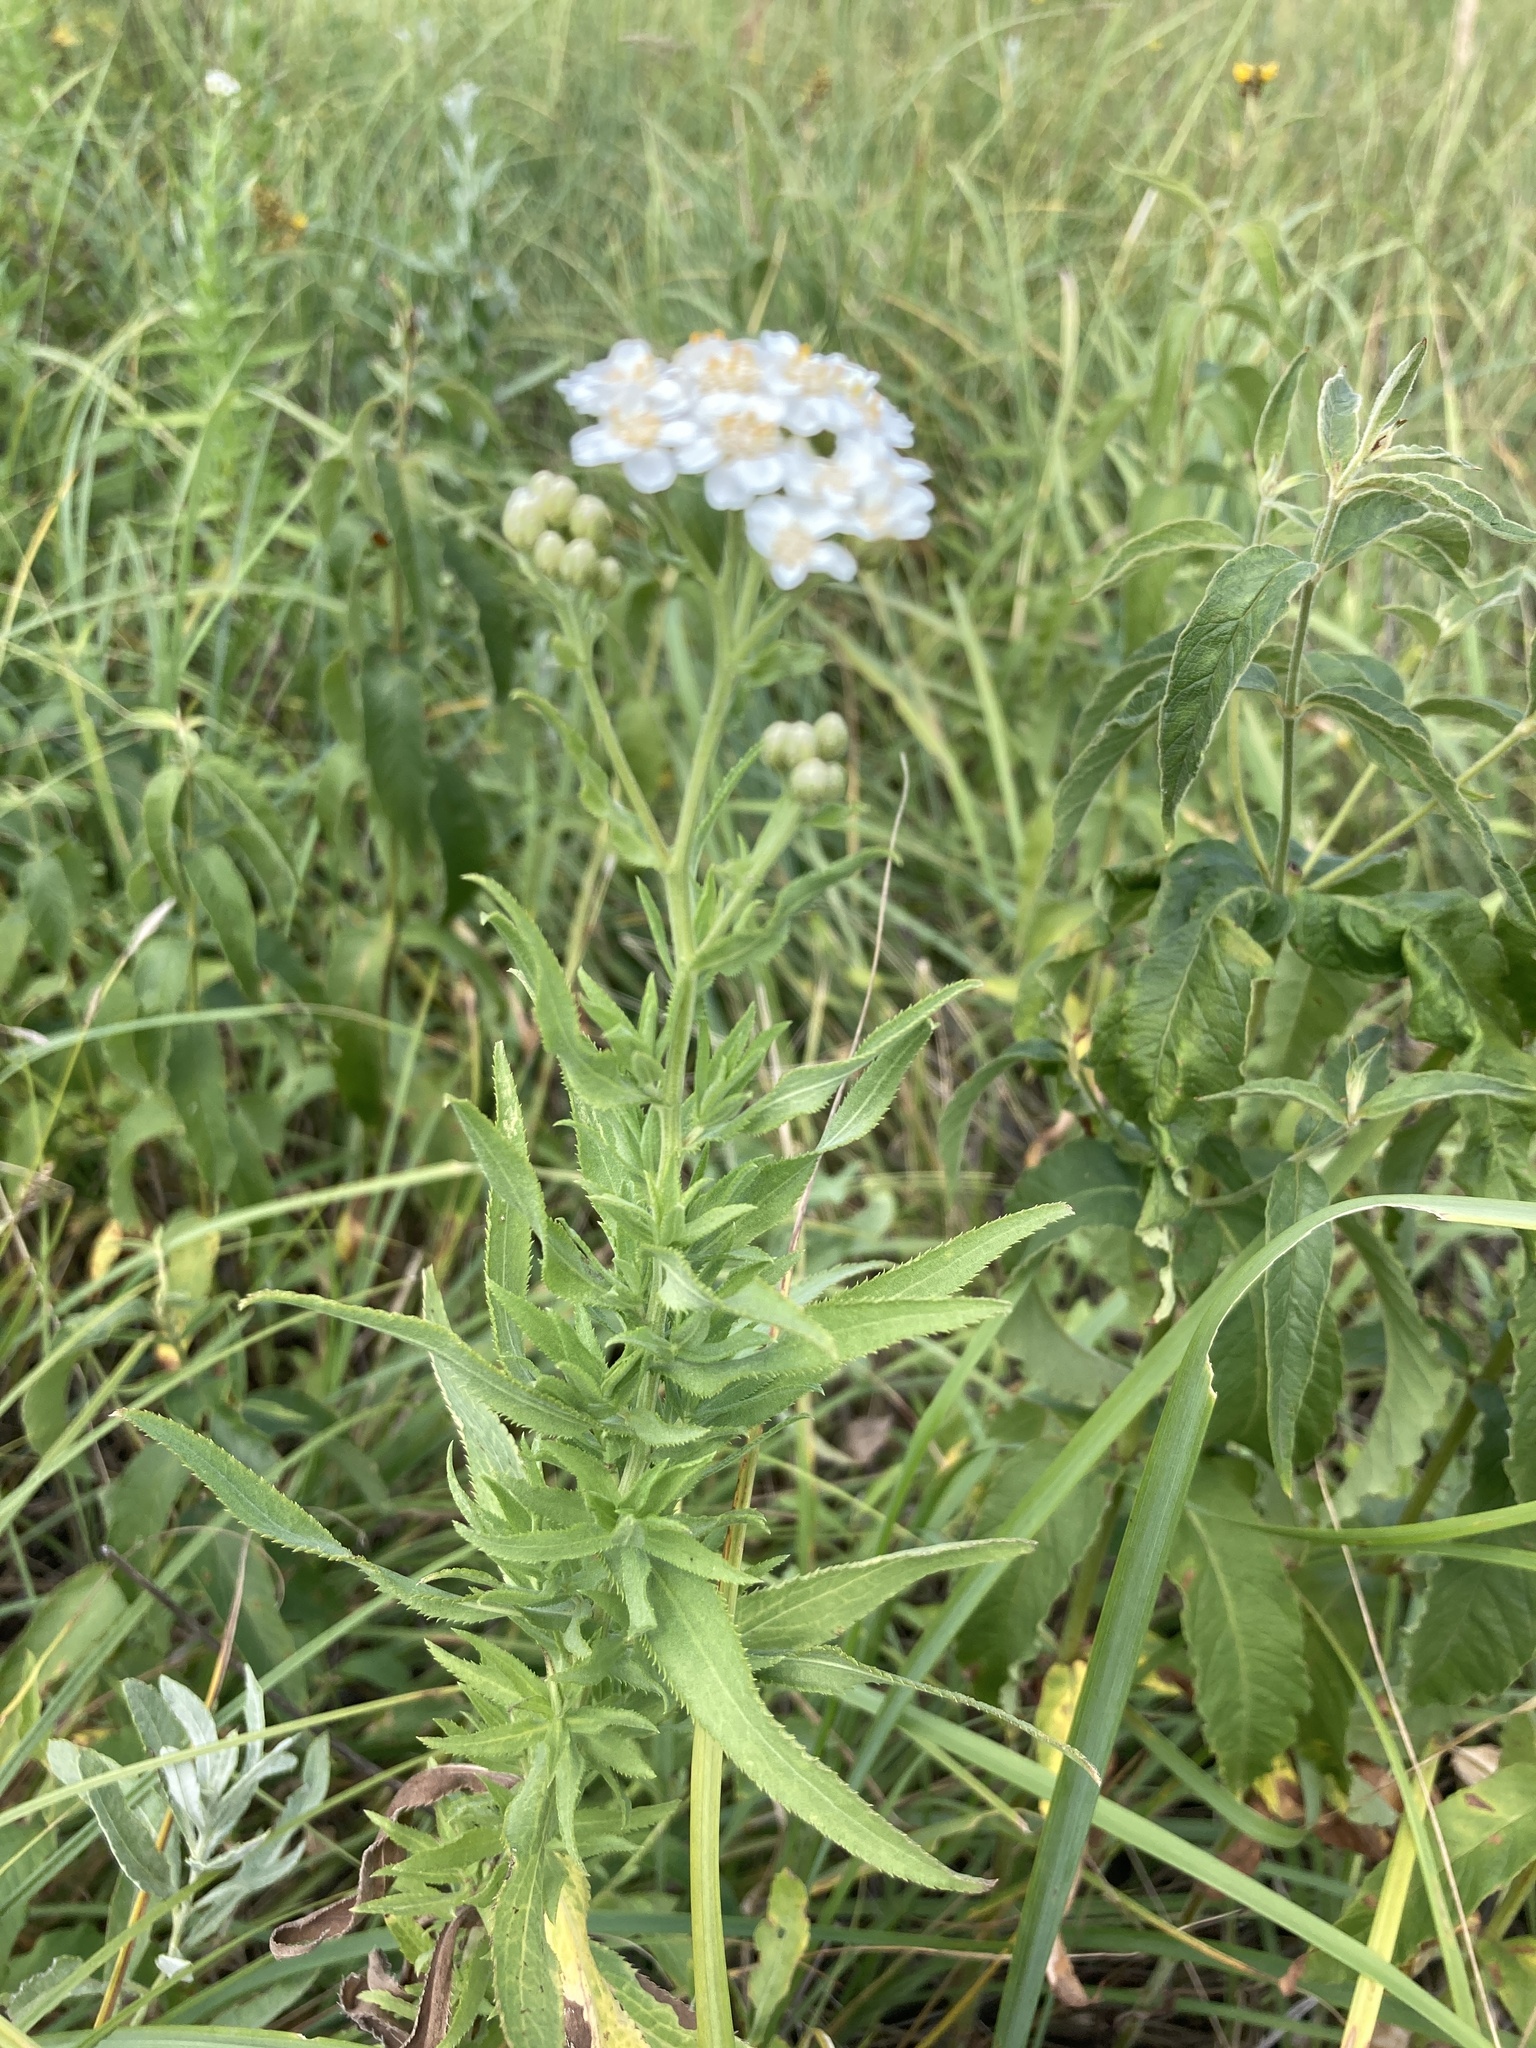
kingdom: Plantae
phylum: Tracheophyta
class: Magnoliopsida
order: Asterales
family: Asteraceae
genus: Achillea
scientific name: Achillea salicifolia
